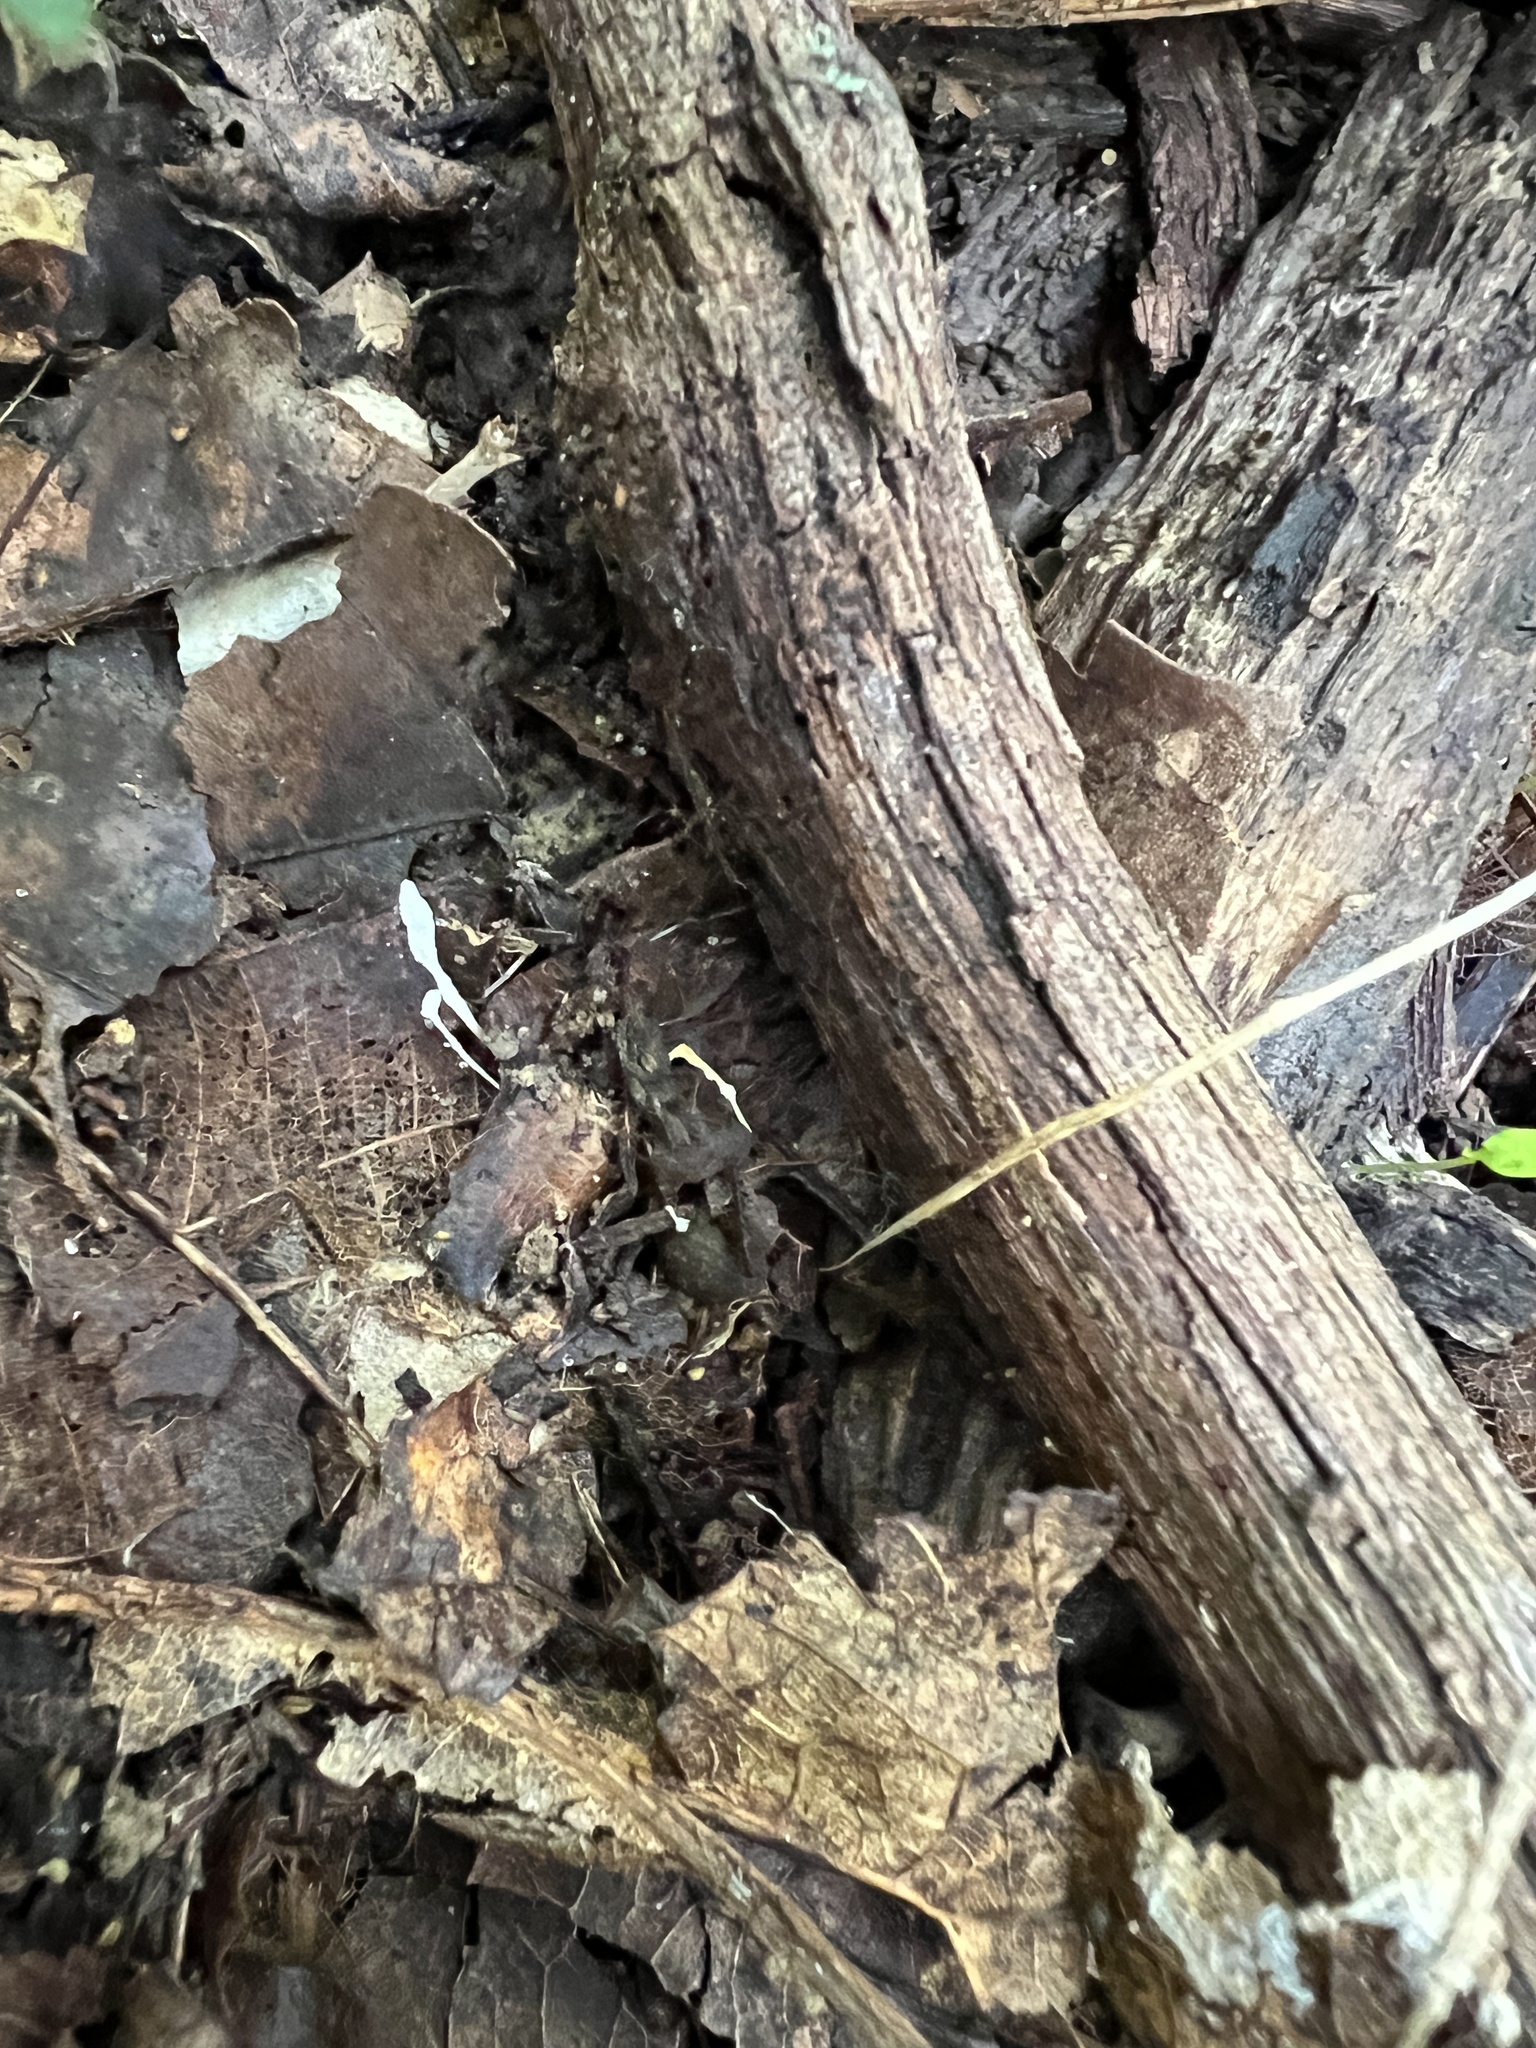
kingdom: Fungi
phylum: Ascomycota
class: Sordariomycetes
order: Hypocreales
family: Cordycipitaceae
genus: Cordyceps
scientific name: Cordyceps tenuipes
